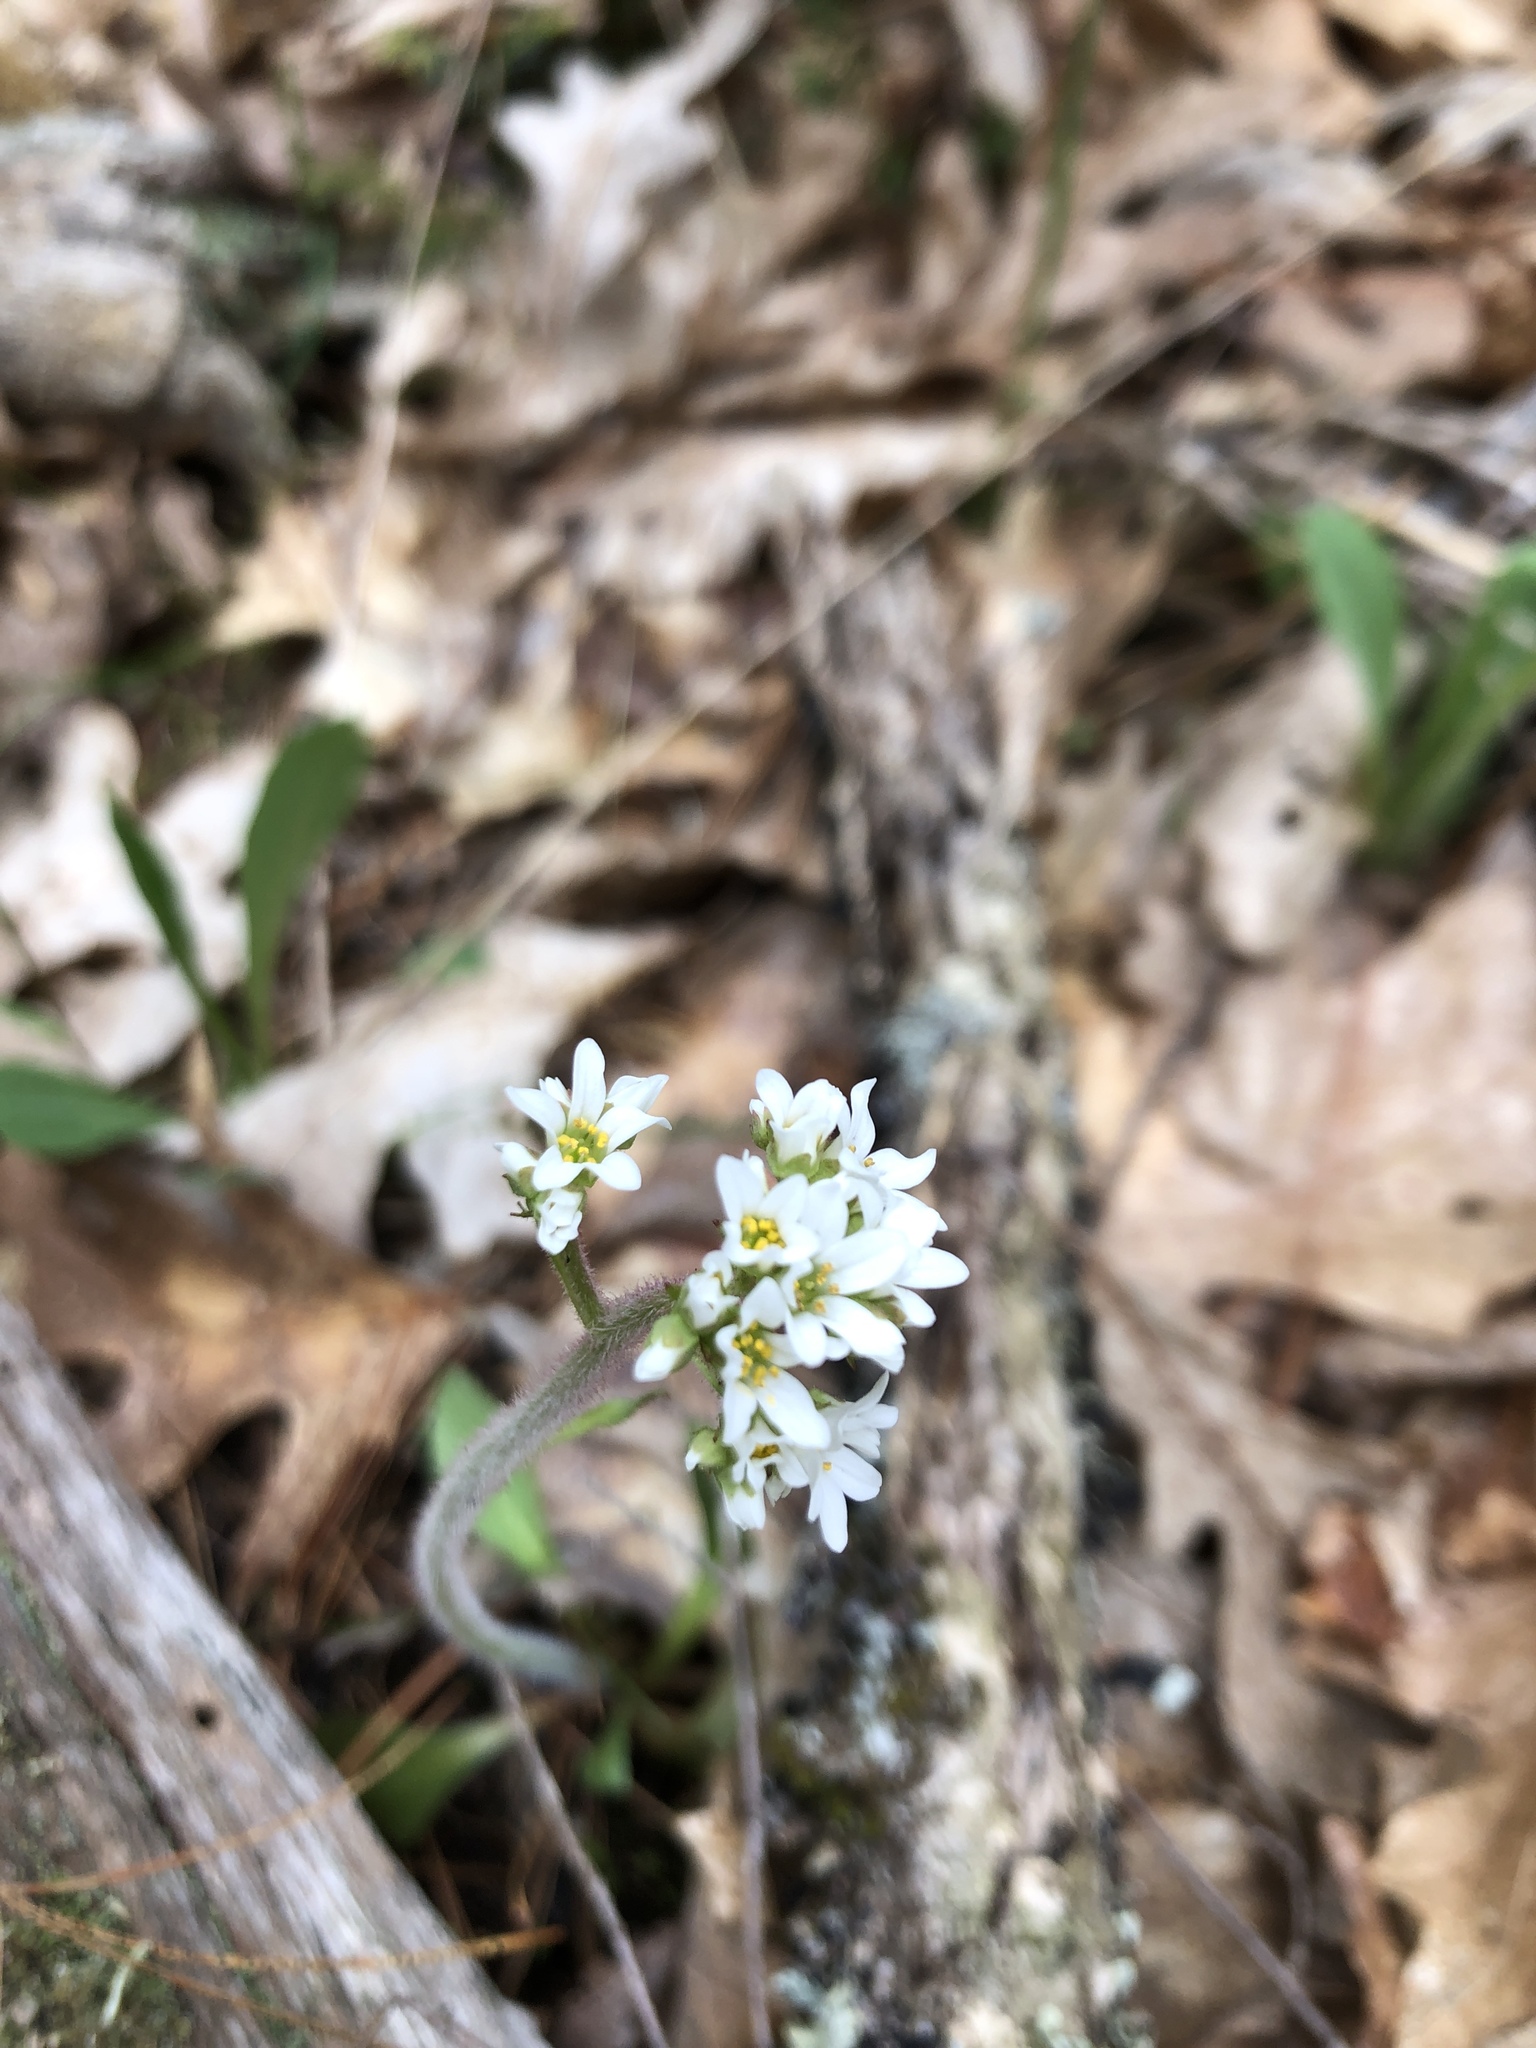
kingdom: Plantae
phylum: Tracheophyta
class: Magnoliopsida
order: Saxifragales
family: Saxifragaceae
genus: Micranthes
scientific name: Micranthes virginiensis
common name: Early saxifrage
